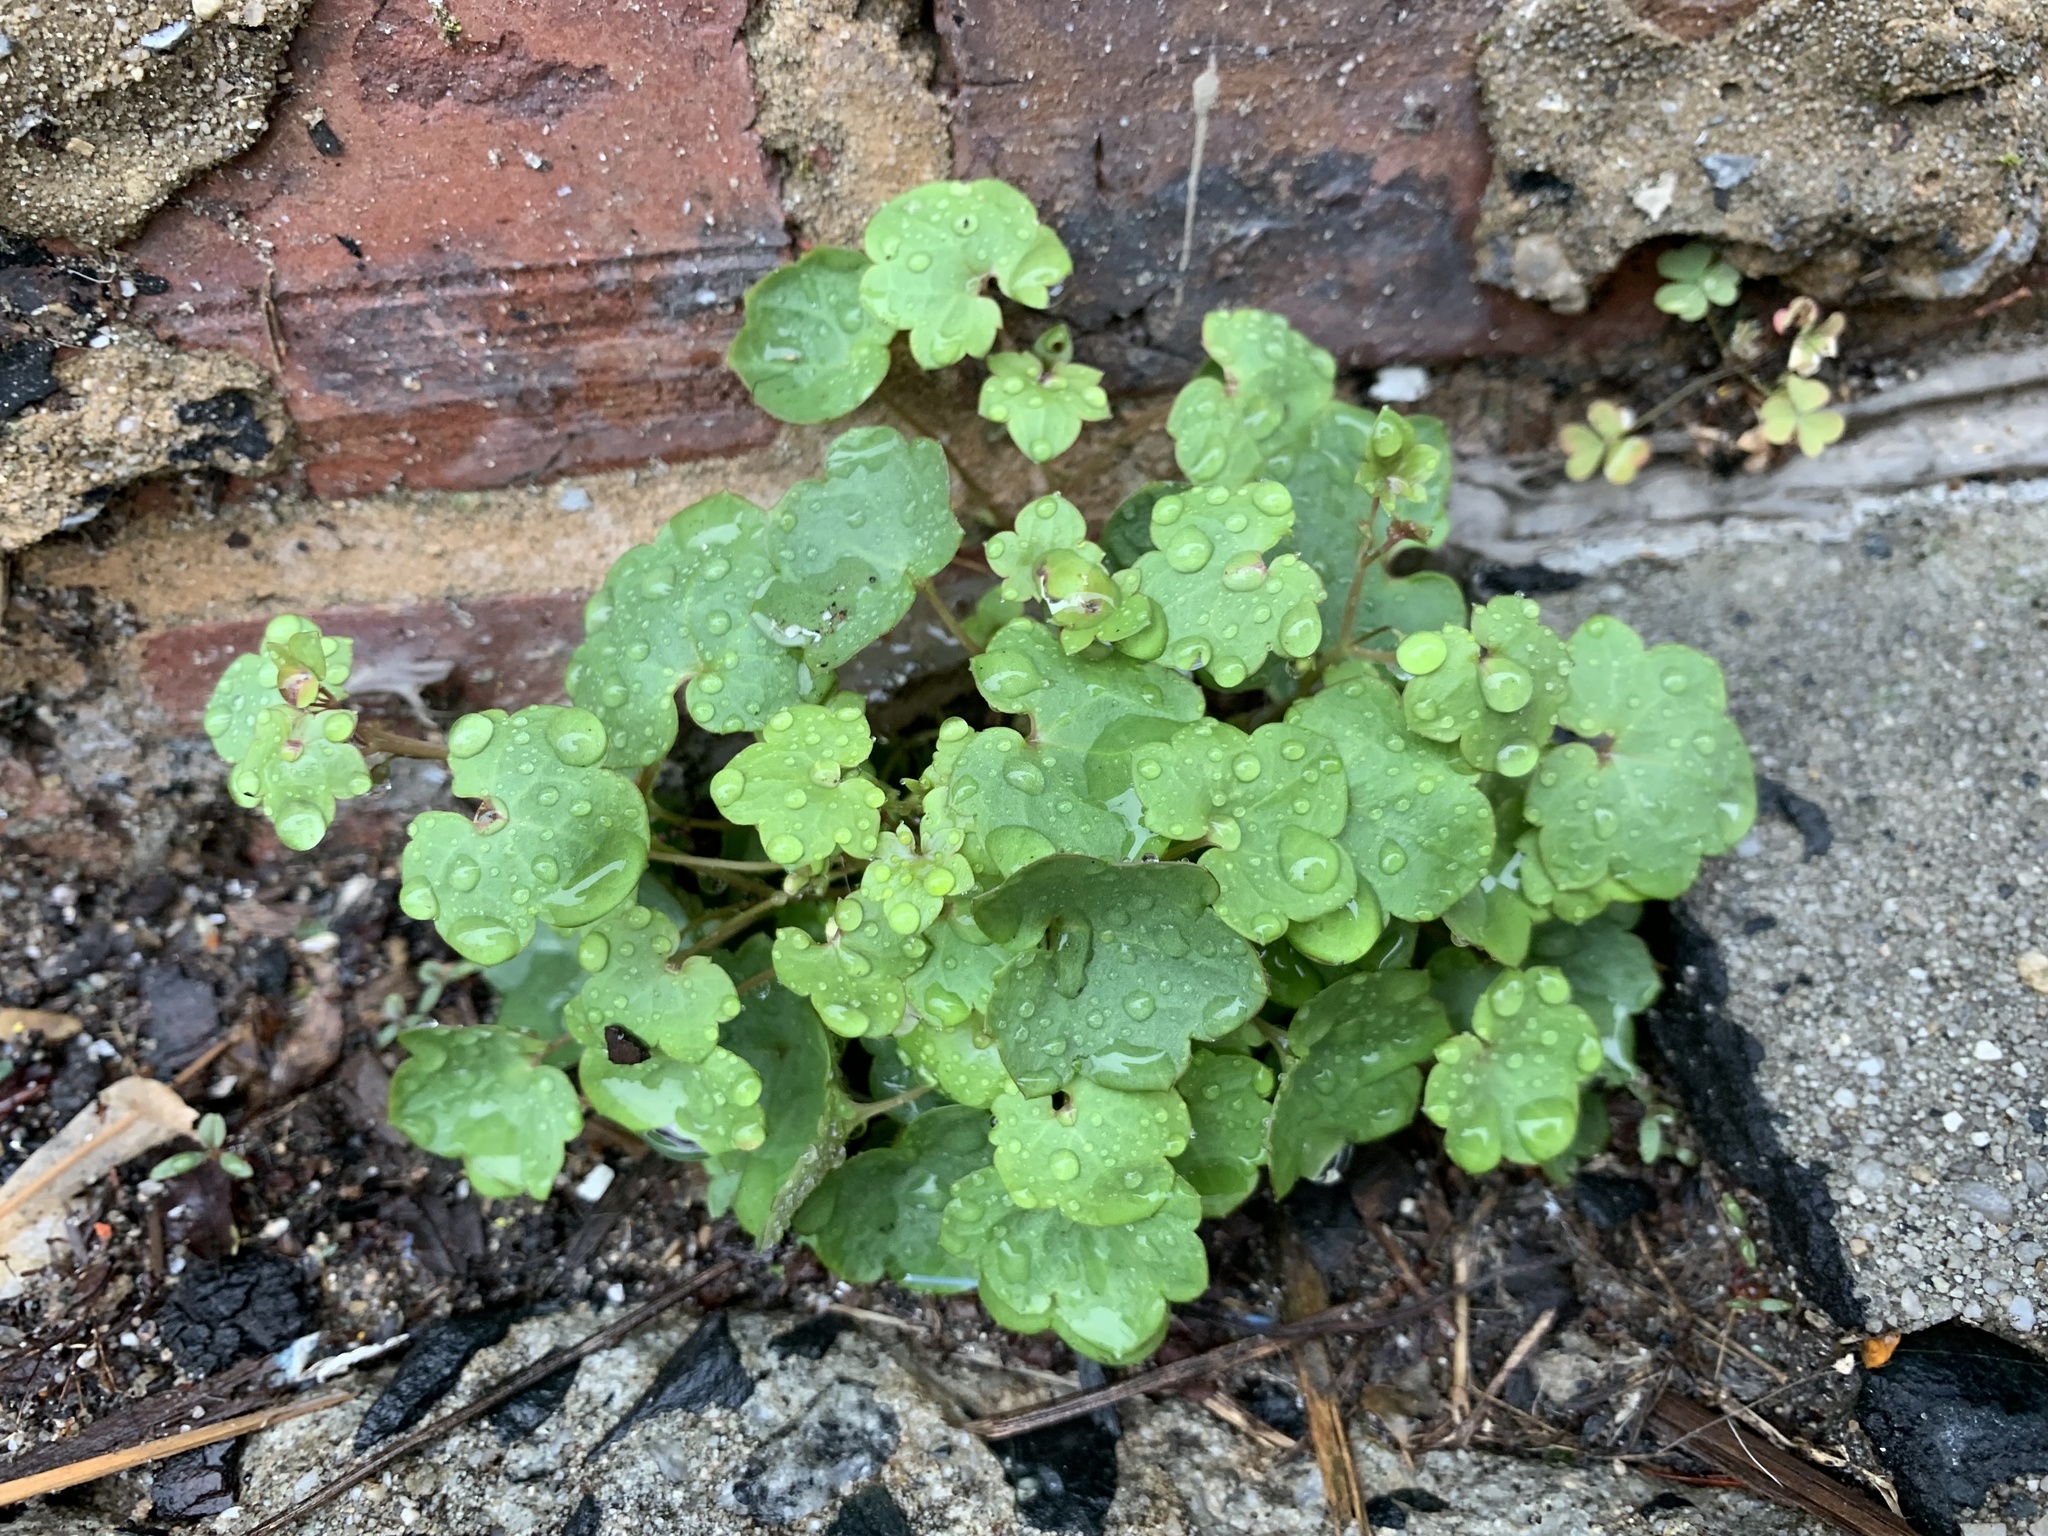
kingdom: Plantae
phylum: Tracheophyta
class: Magnoliopsida
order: Lamiales
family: Plantaginaceae
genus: Cymbalaria
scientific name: Cymbalaria muralis
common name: Ivy-leaved toadflax
